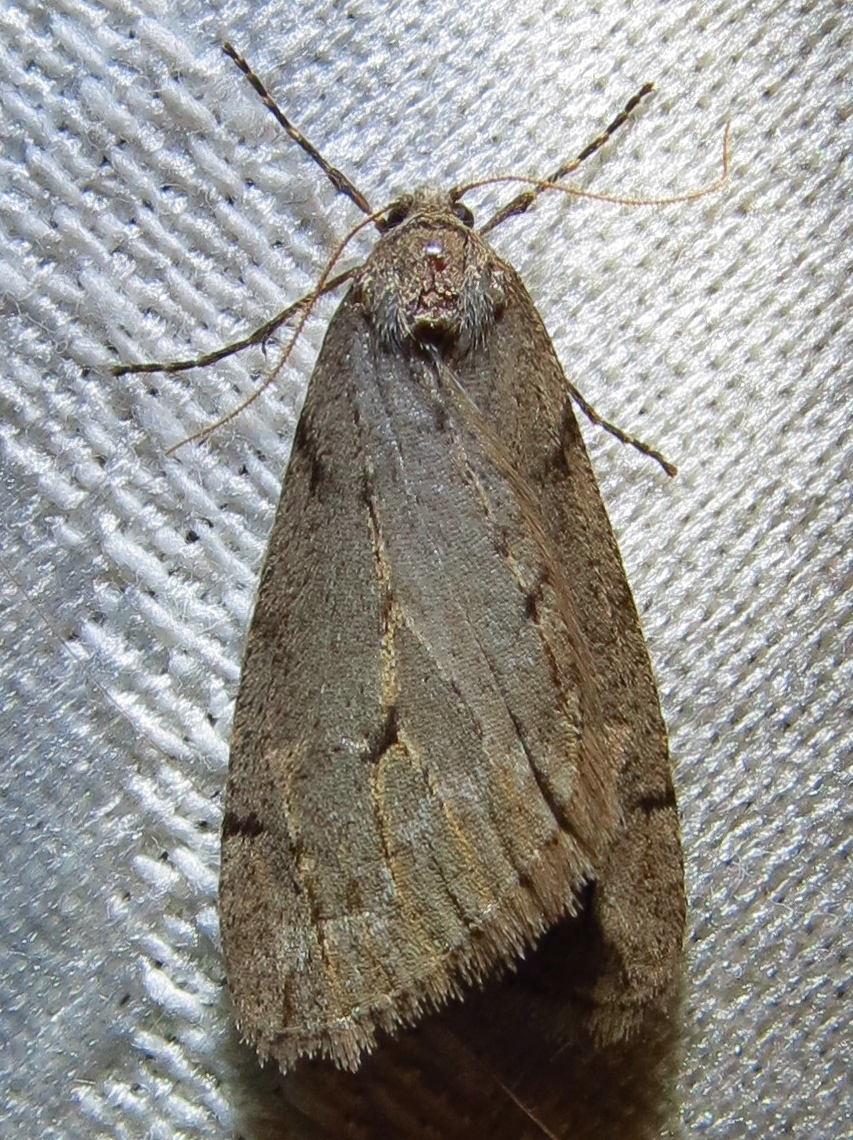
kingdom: Animalia
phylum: Arthropoda
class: Insecta
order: Lepidoptera
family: Geometridae
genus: Paleacrita
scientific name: Paleacrita vernata
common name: Spring cankerworm
